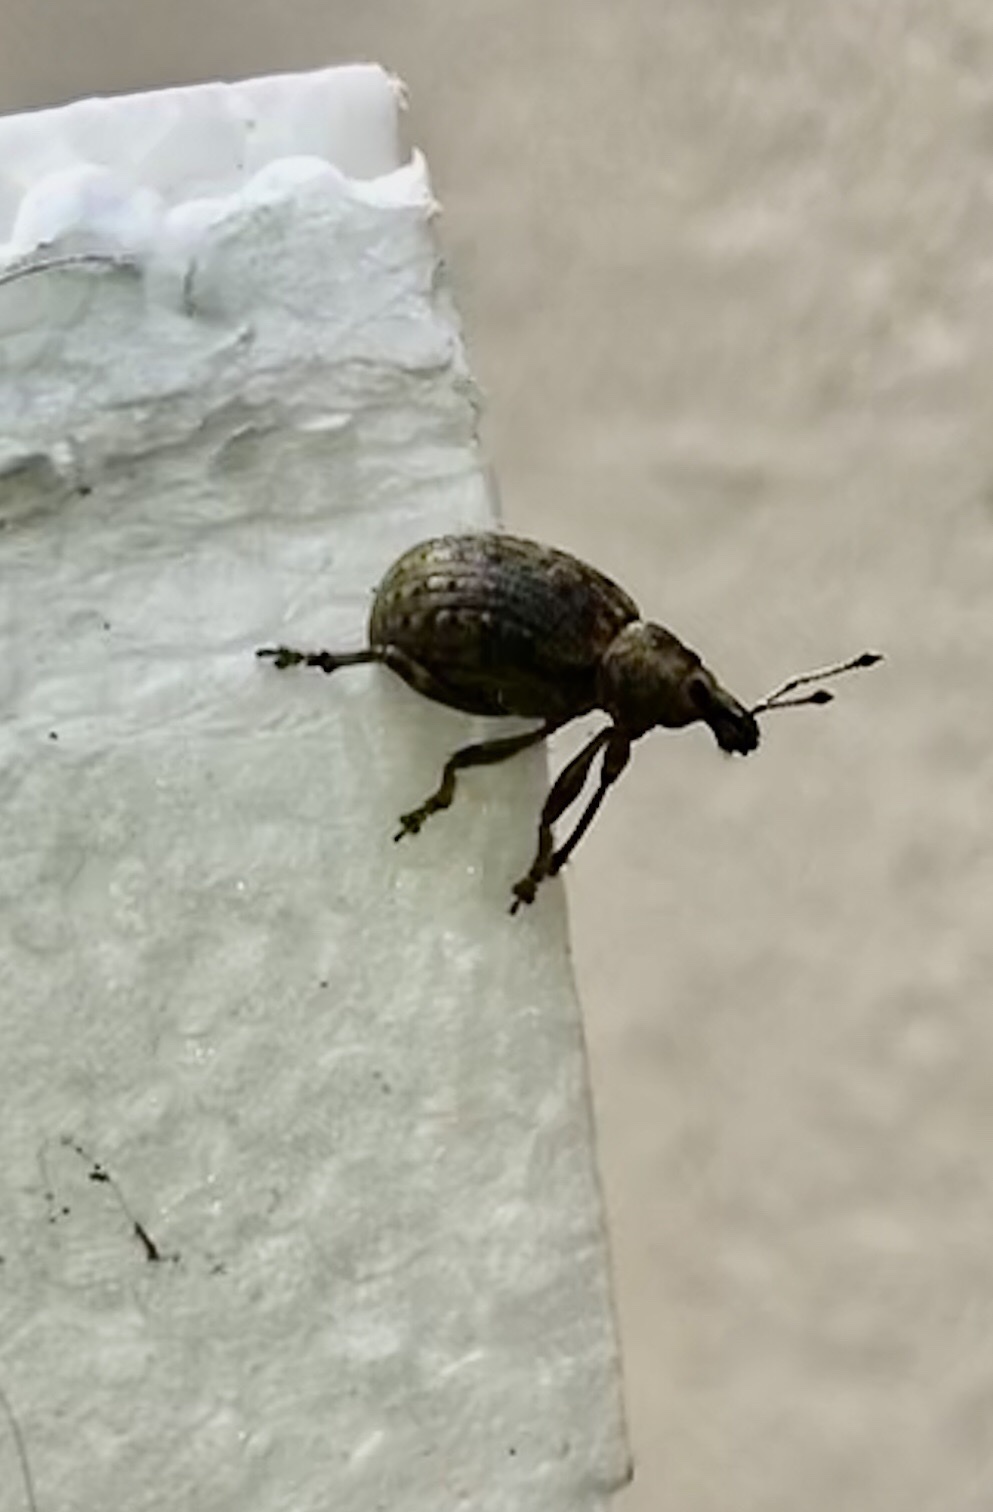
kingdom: Animalia
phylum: Arthropoda
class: Insecta
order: Coleoptera
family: Curculionidae
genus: Liophloeus
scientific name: Liophloeus tessulatus
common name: Weevil
